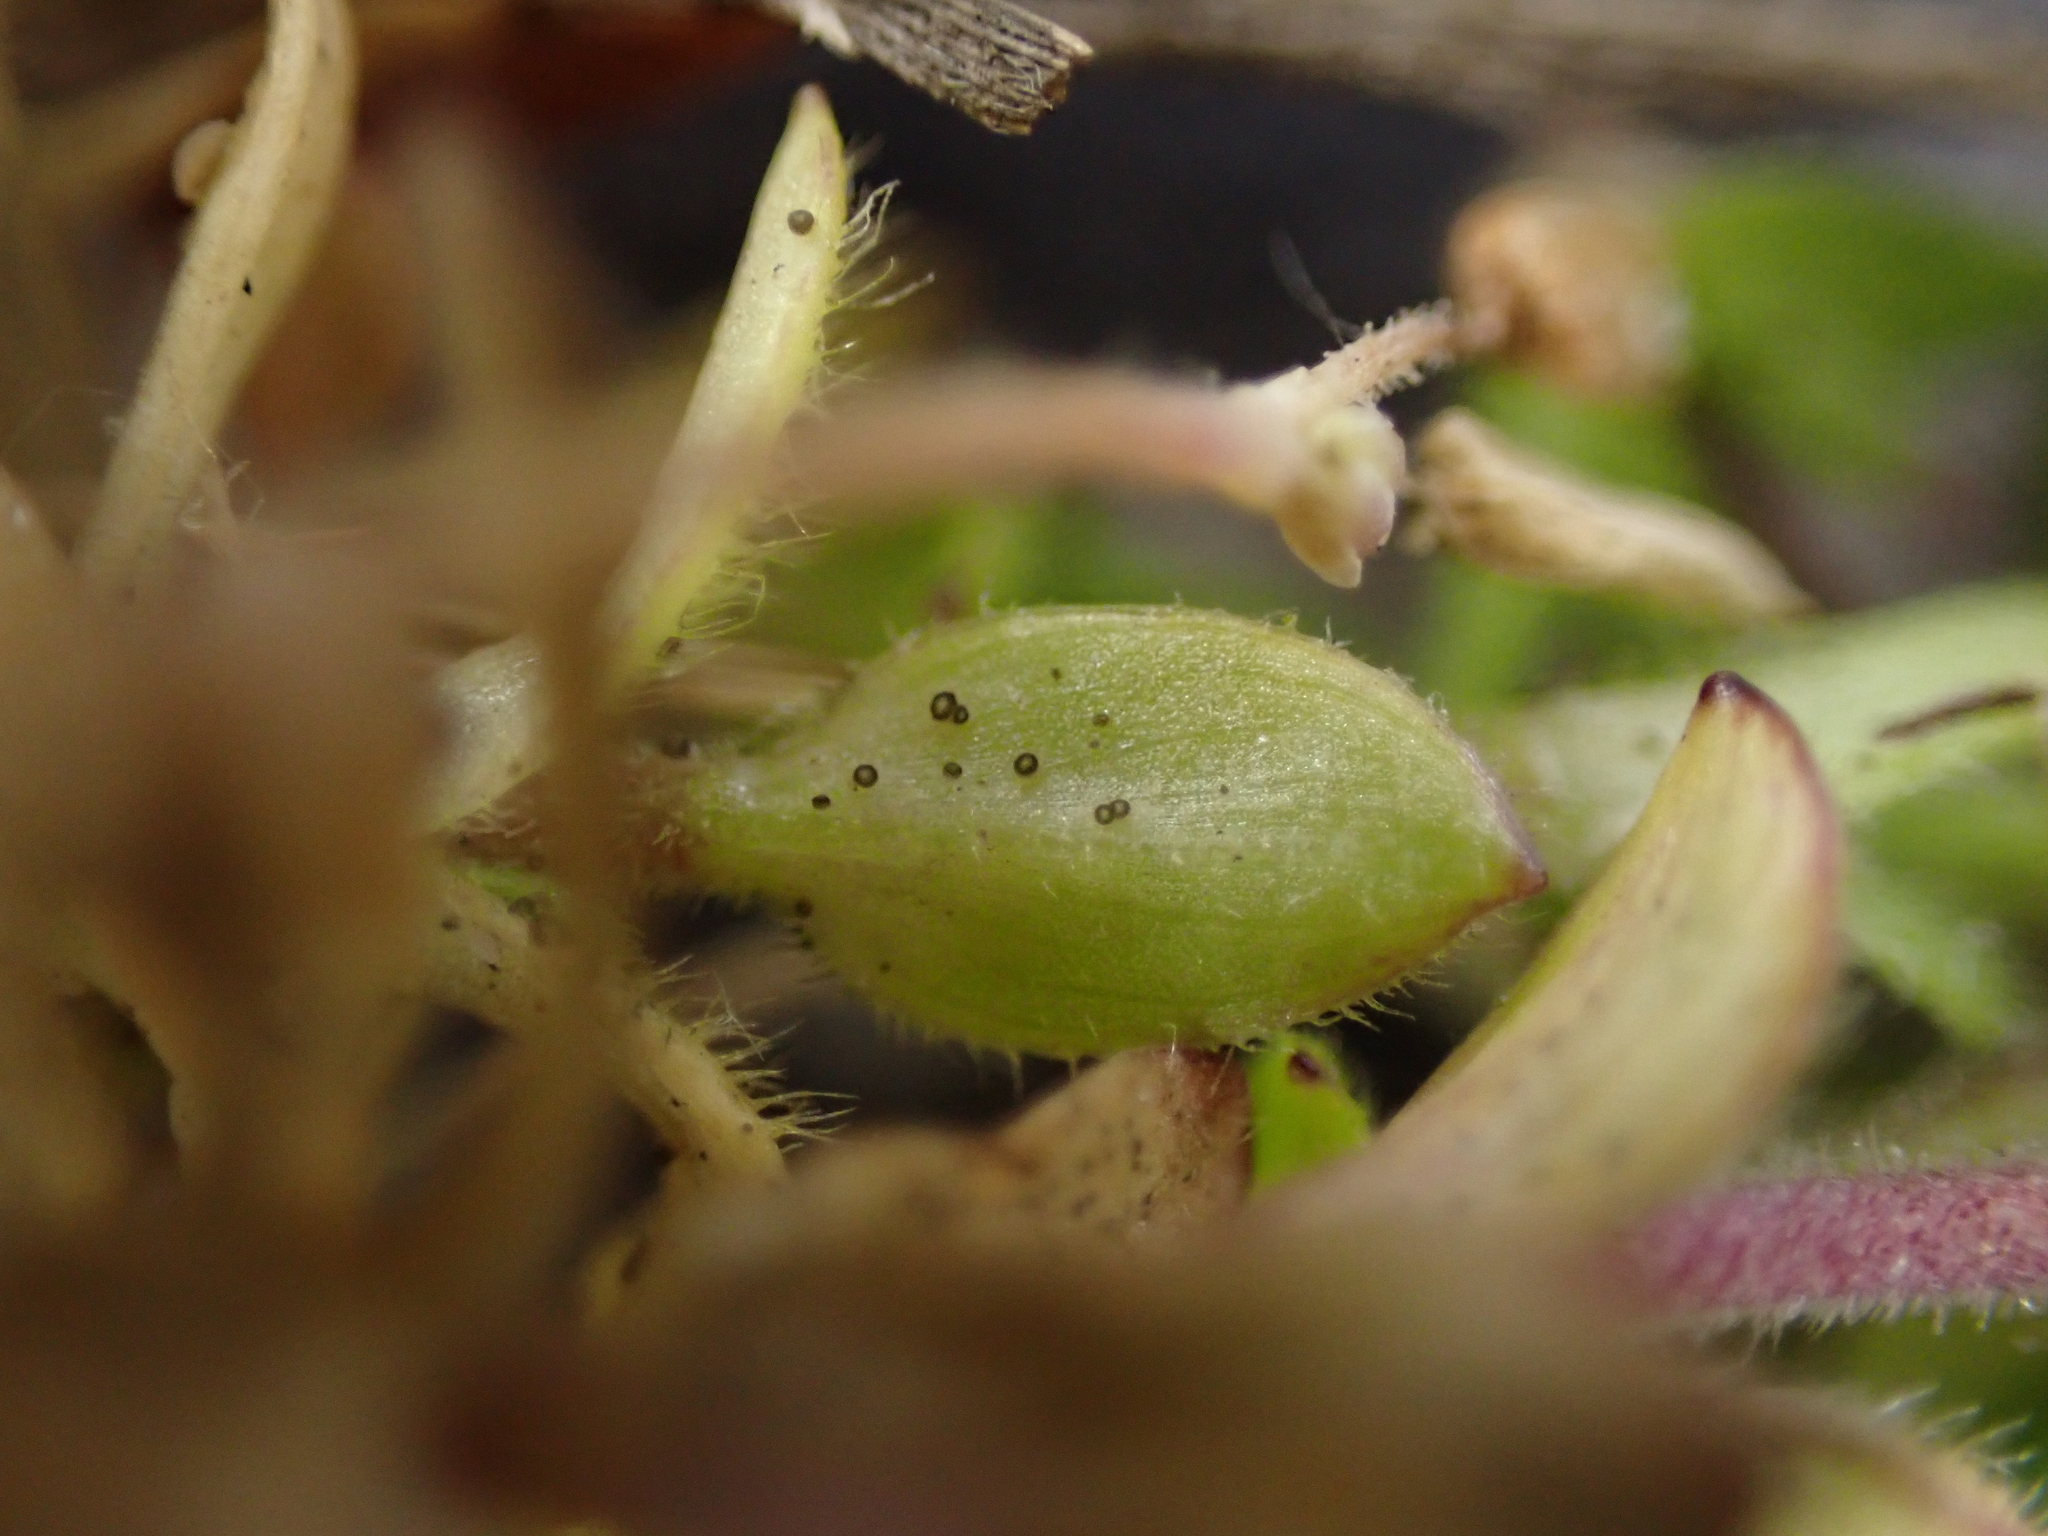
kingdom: Fungi
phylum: Ascomycota
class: Leotiomycetes
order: Helotiales
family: Drepanopezizaceae
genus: Leptotrochila
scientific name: Leptotrochila cerastiorum
